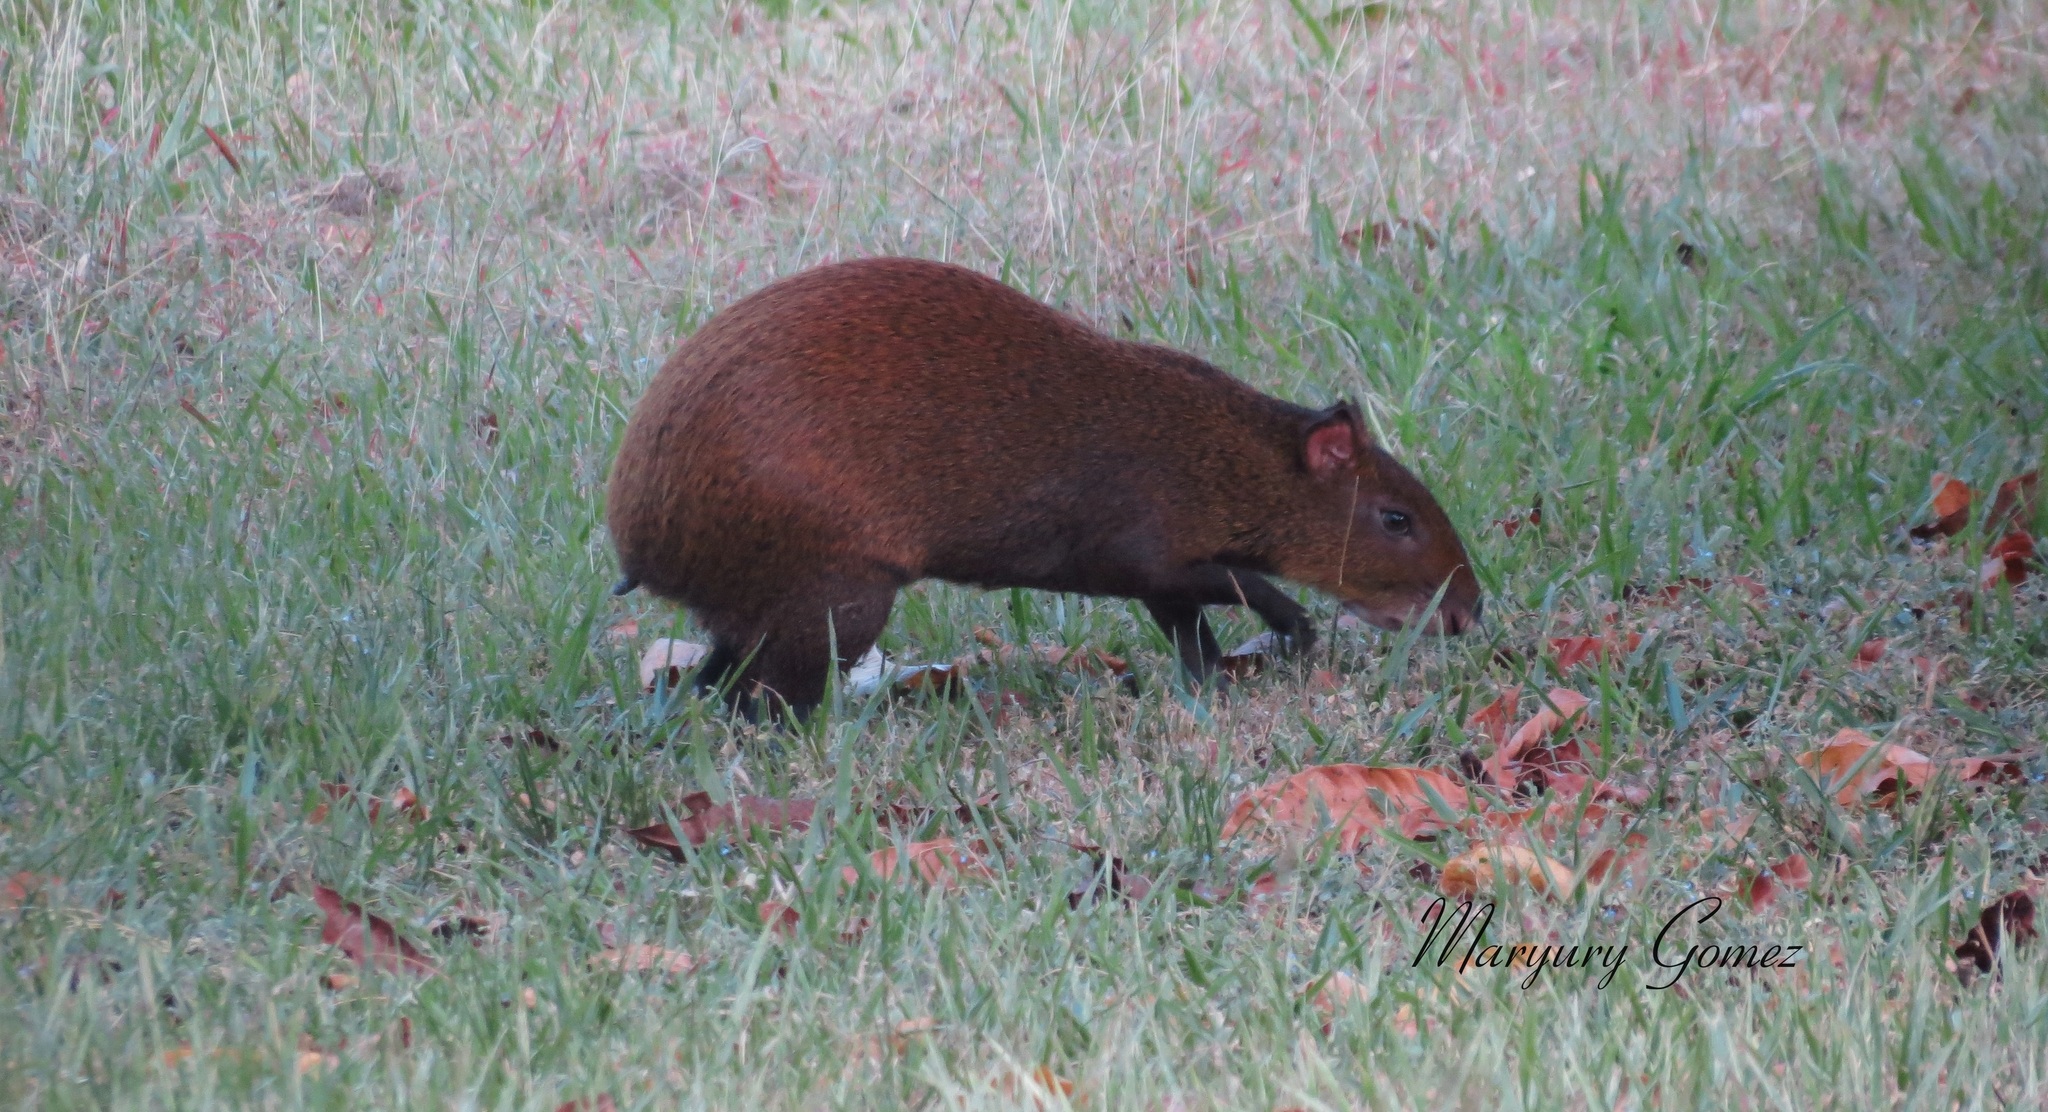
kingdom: Animalia
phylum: Chordata
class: Mammalia
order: Rodentia
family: Dasyproctidae
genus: Dasyprocta
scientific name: Dasyprocta punctata
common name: Central american agouti
